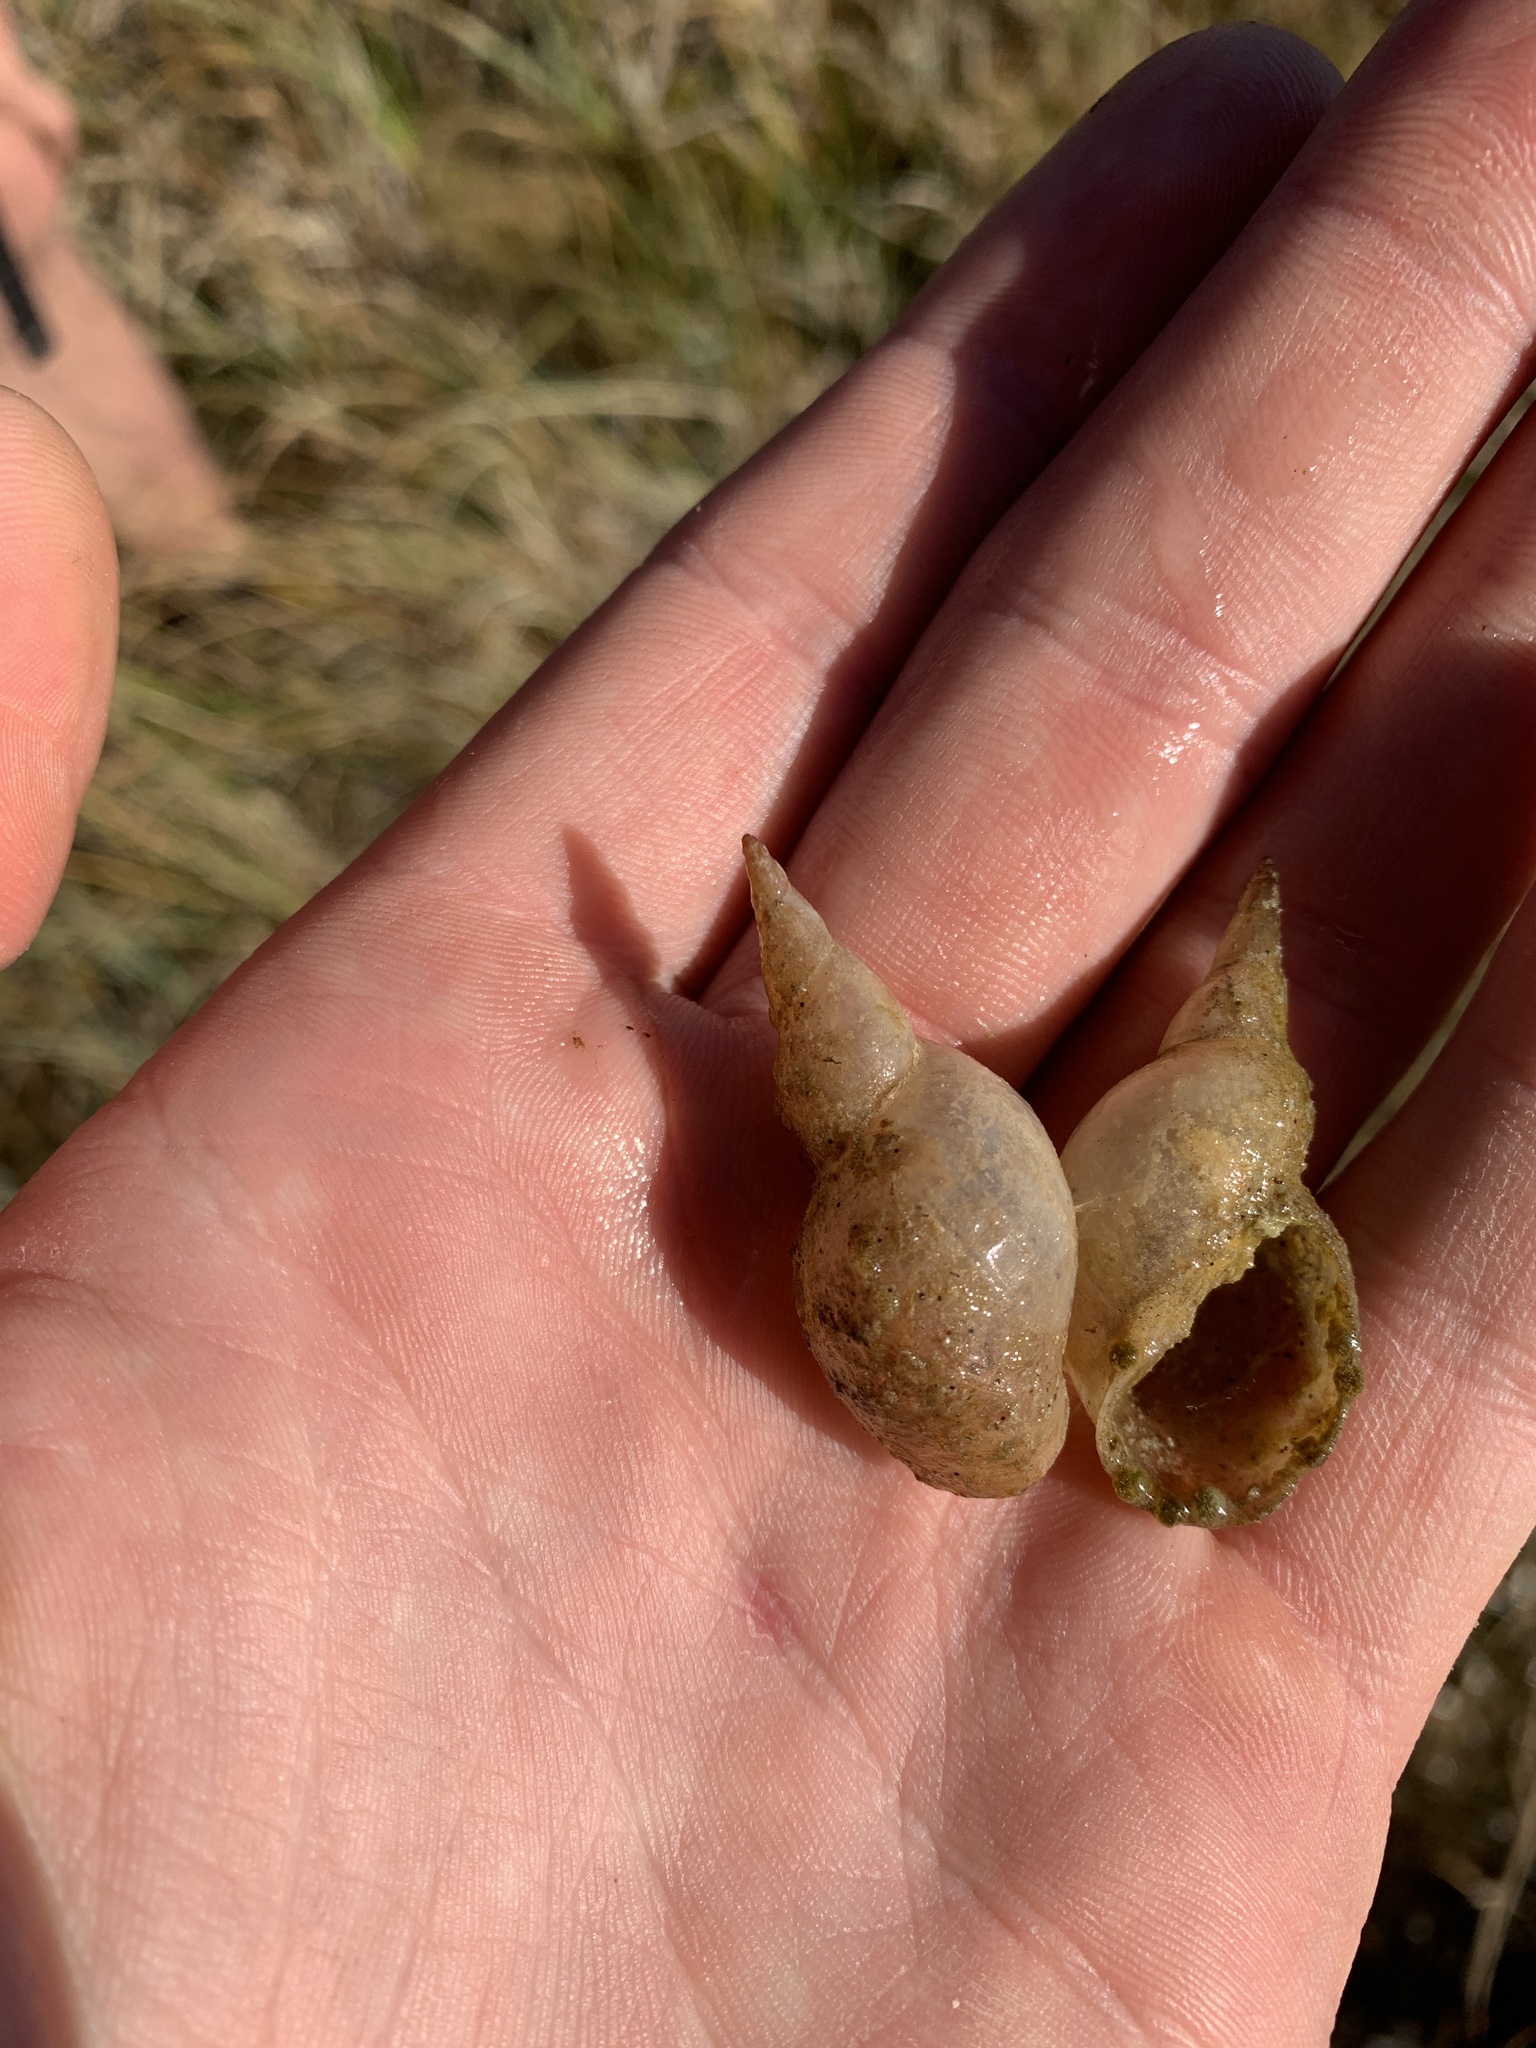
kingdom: Animalia
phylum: Mollusca
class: Gastropoda
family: Lymnaeidae
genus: Lymnaea
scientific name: Lymnaea stagnalis
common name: Great pond snail
